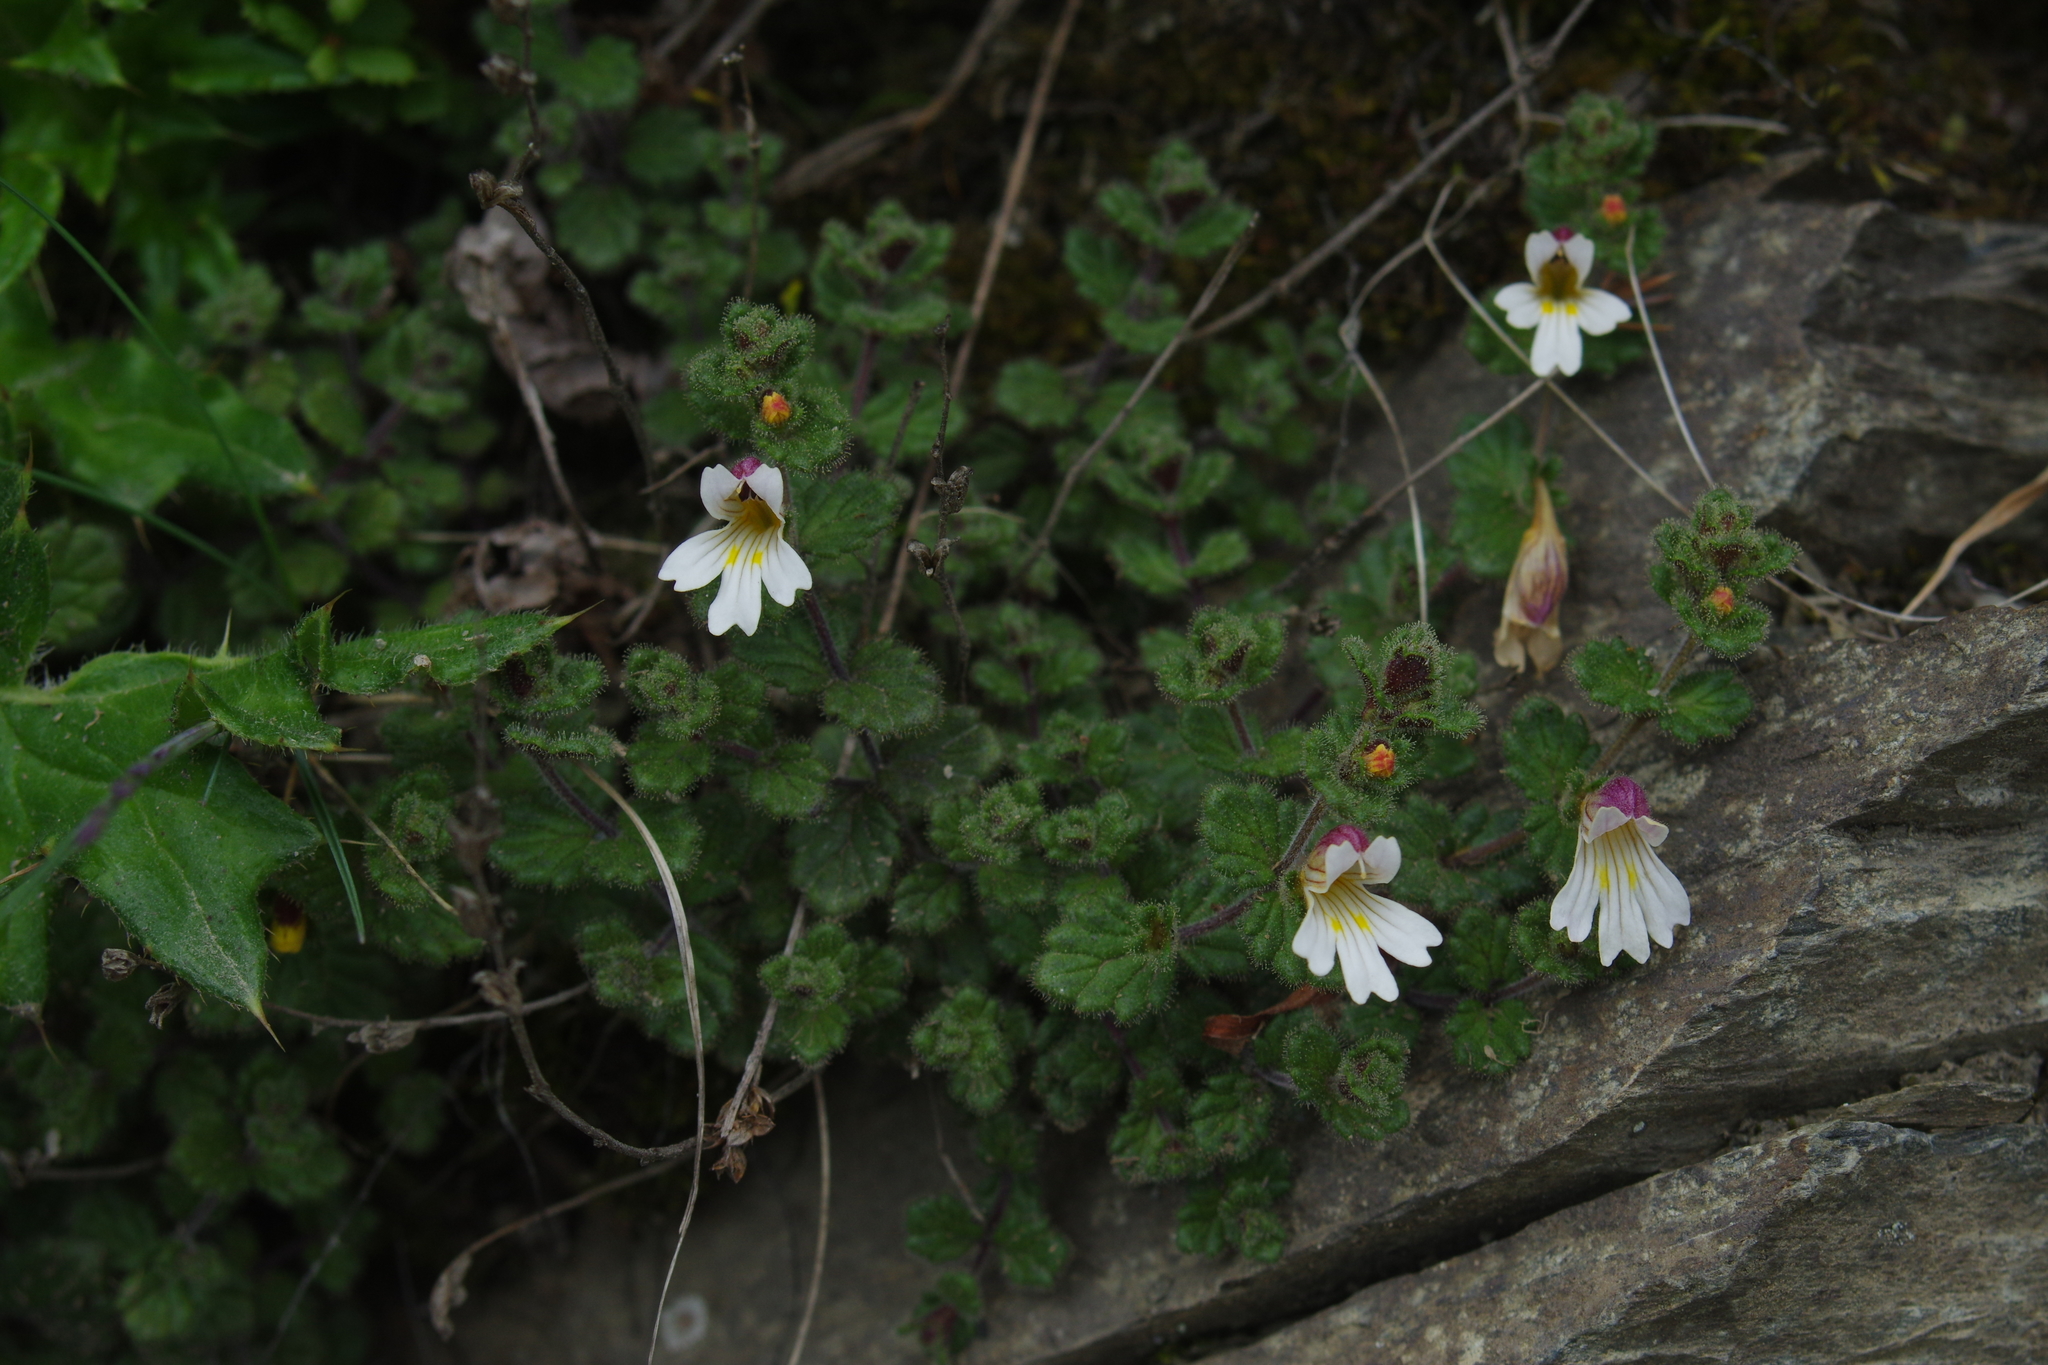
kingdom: Plantae
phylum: Tracheophyta
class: Magnoliopsida
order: Lamiales
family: Orobanchaceae
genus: Euphrasia
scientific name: Euphrasia transmorrisonensis
